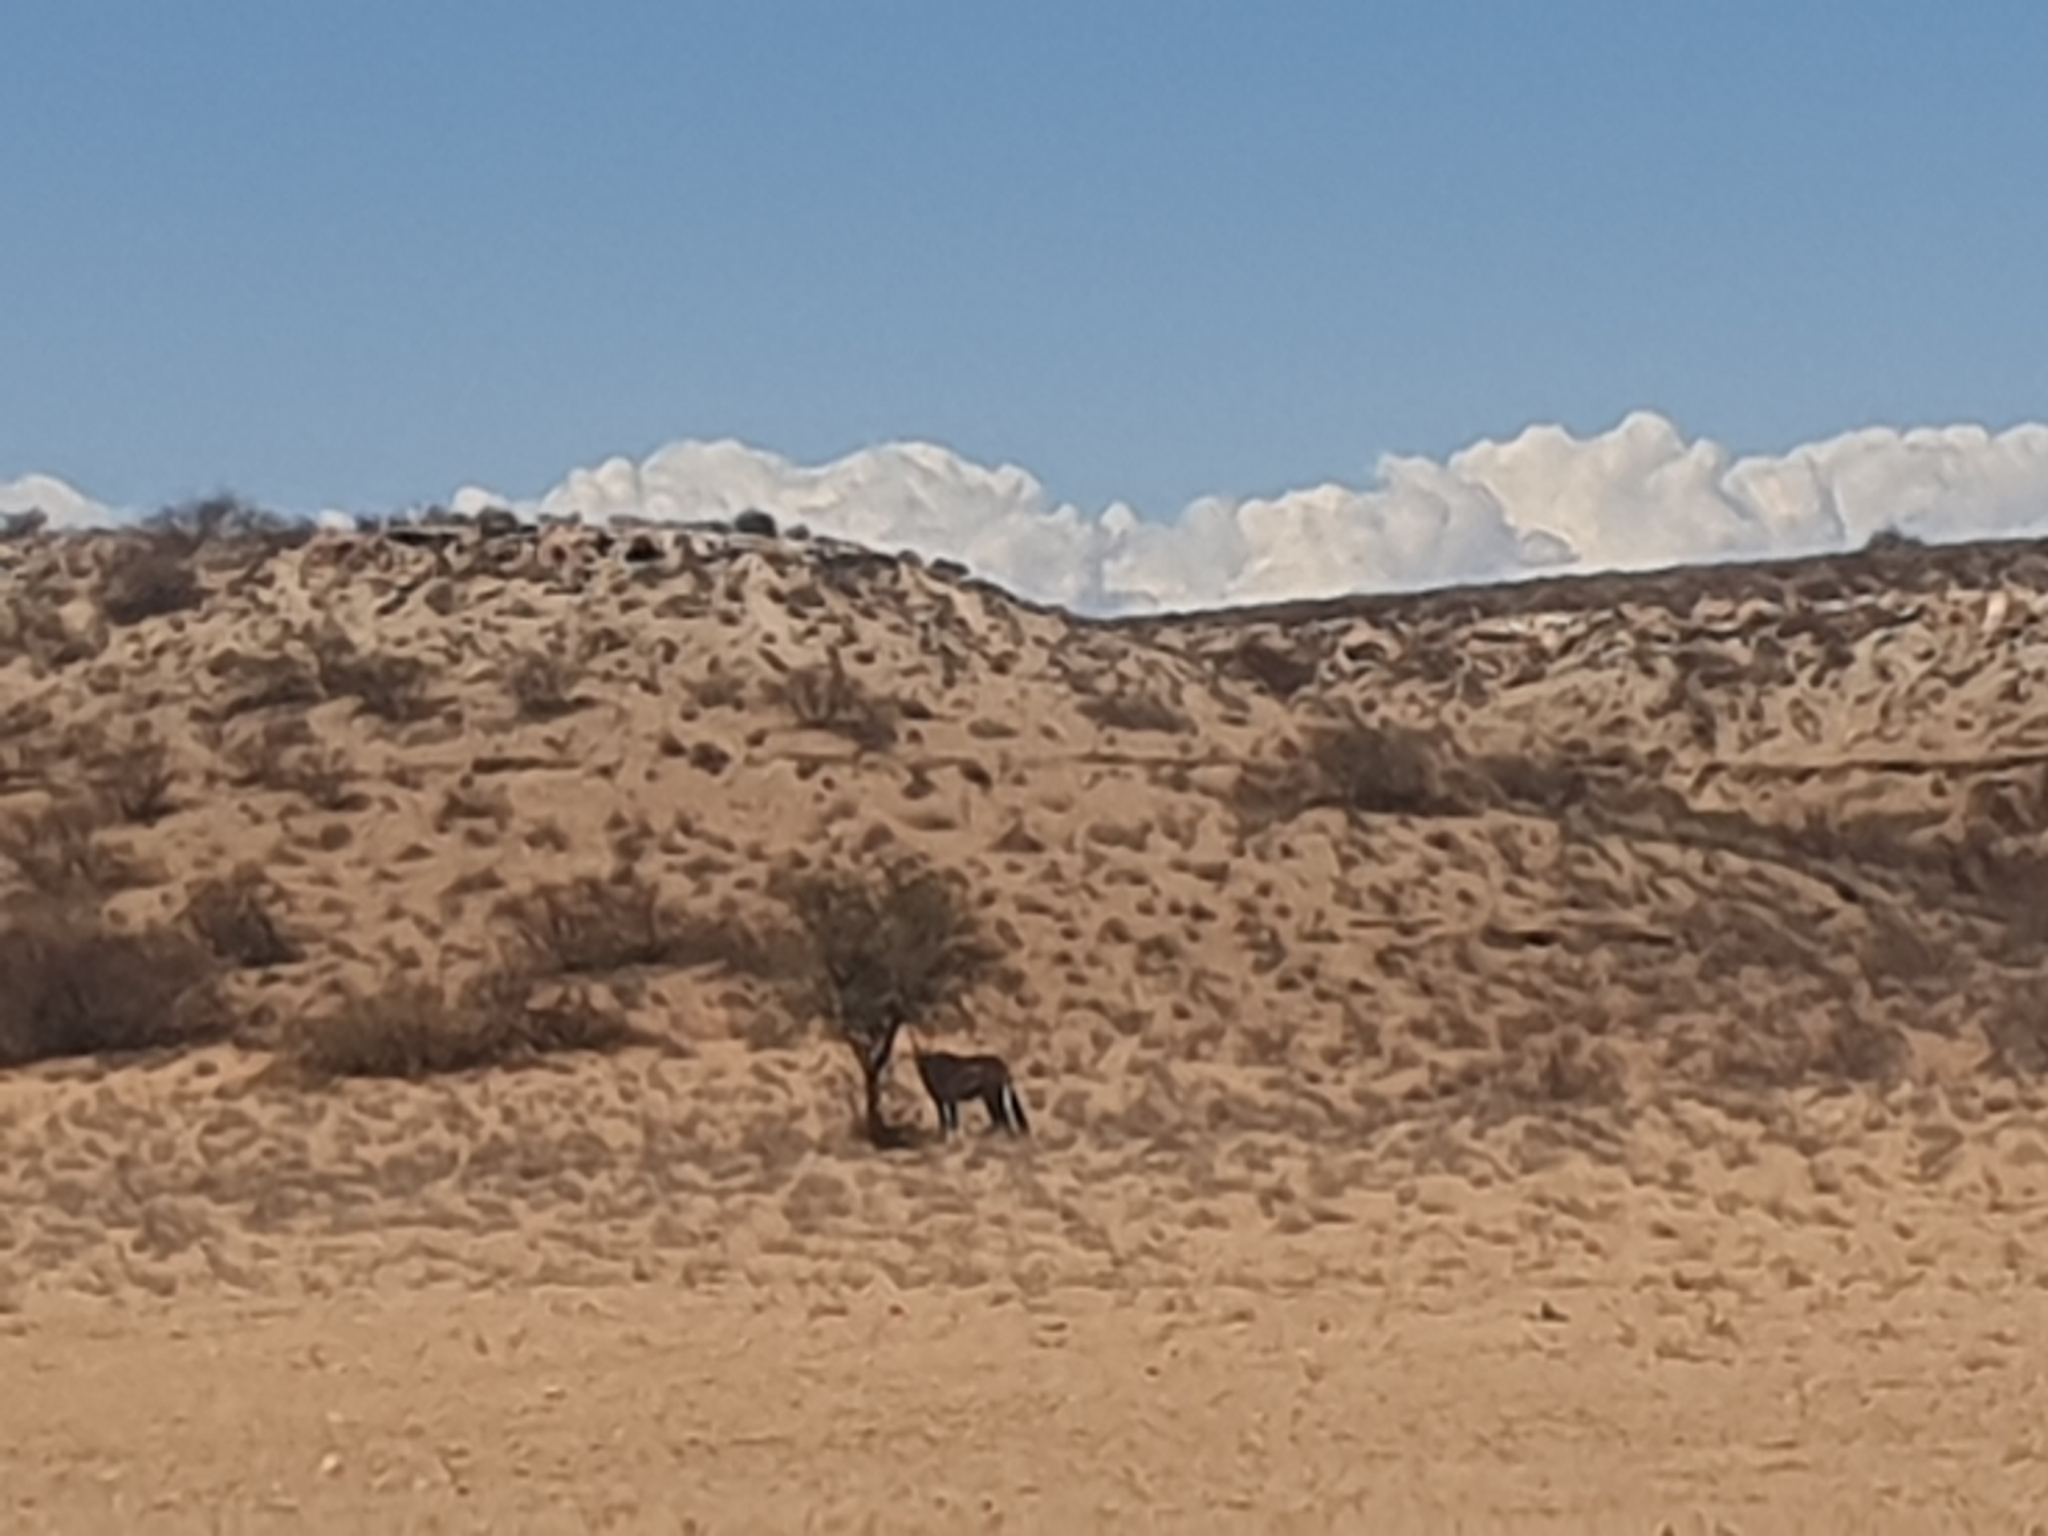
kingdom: Animalia
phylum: Chordata
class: Mammalia
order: Artiodactyla
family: Bovidae
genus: Oryx
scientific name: Oryx gazella
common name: Gemsbok
